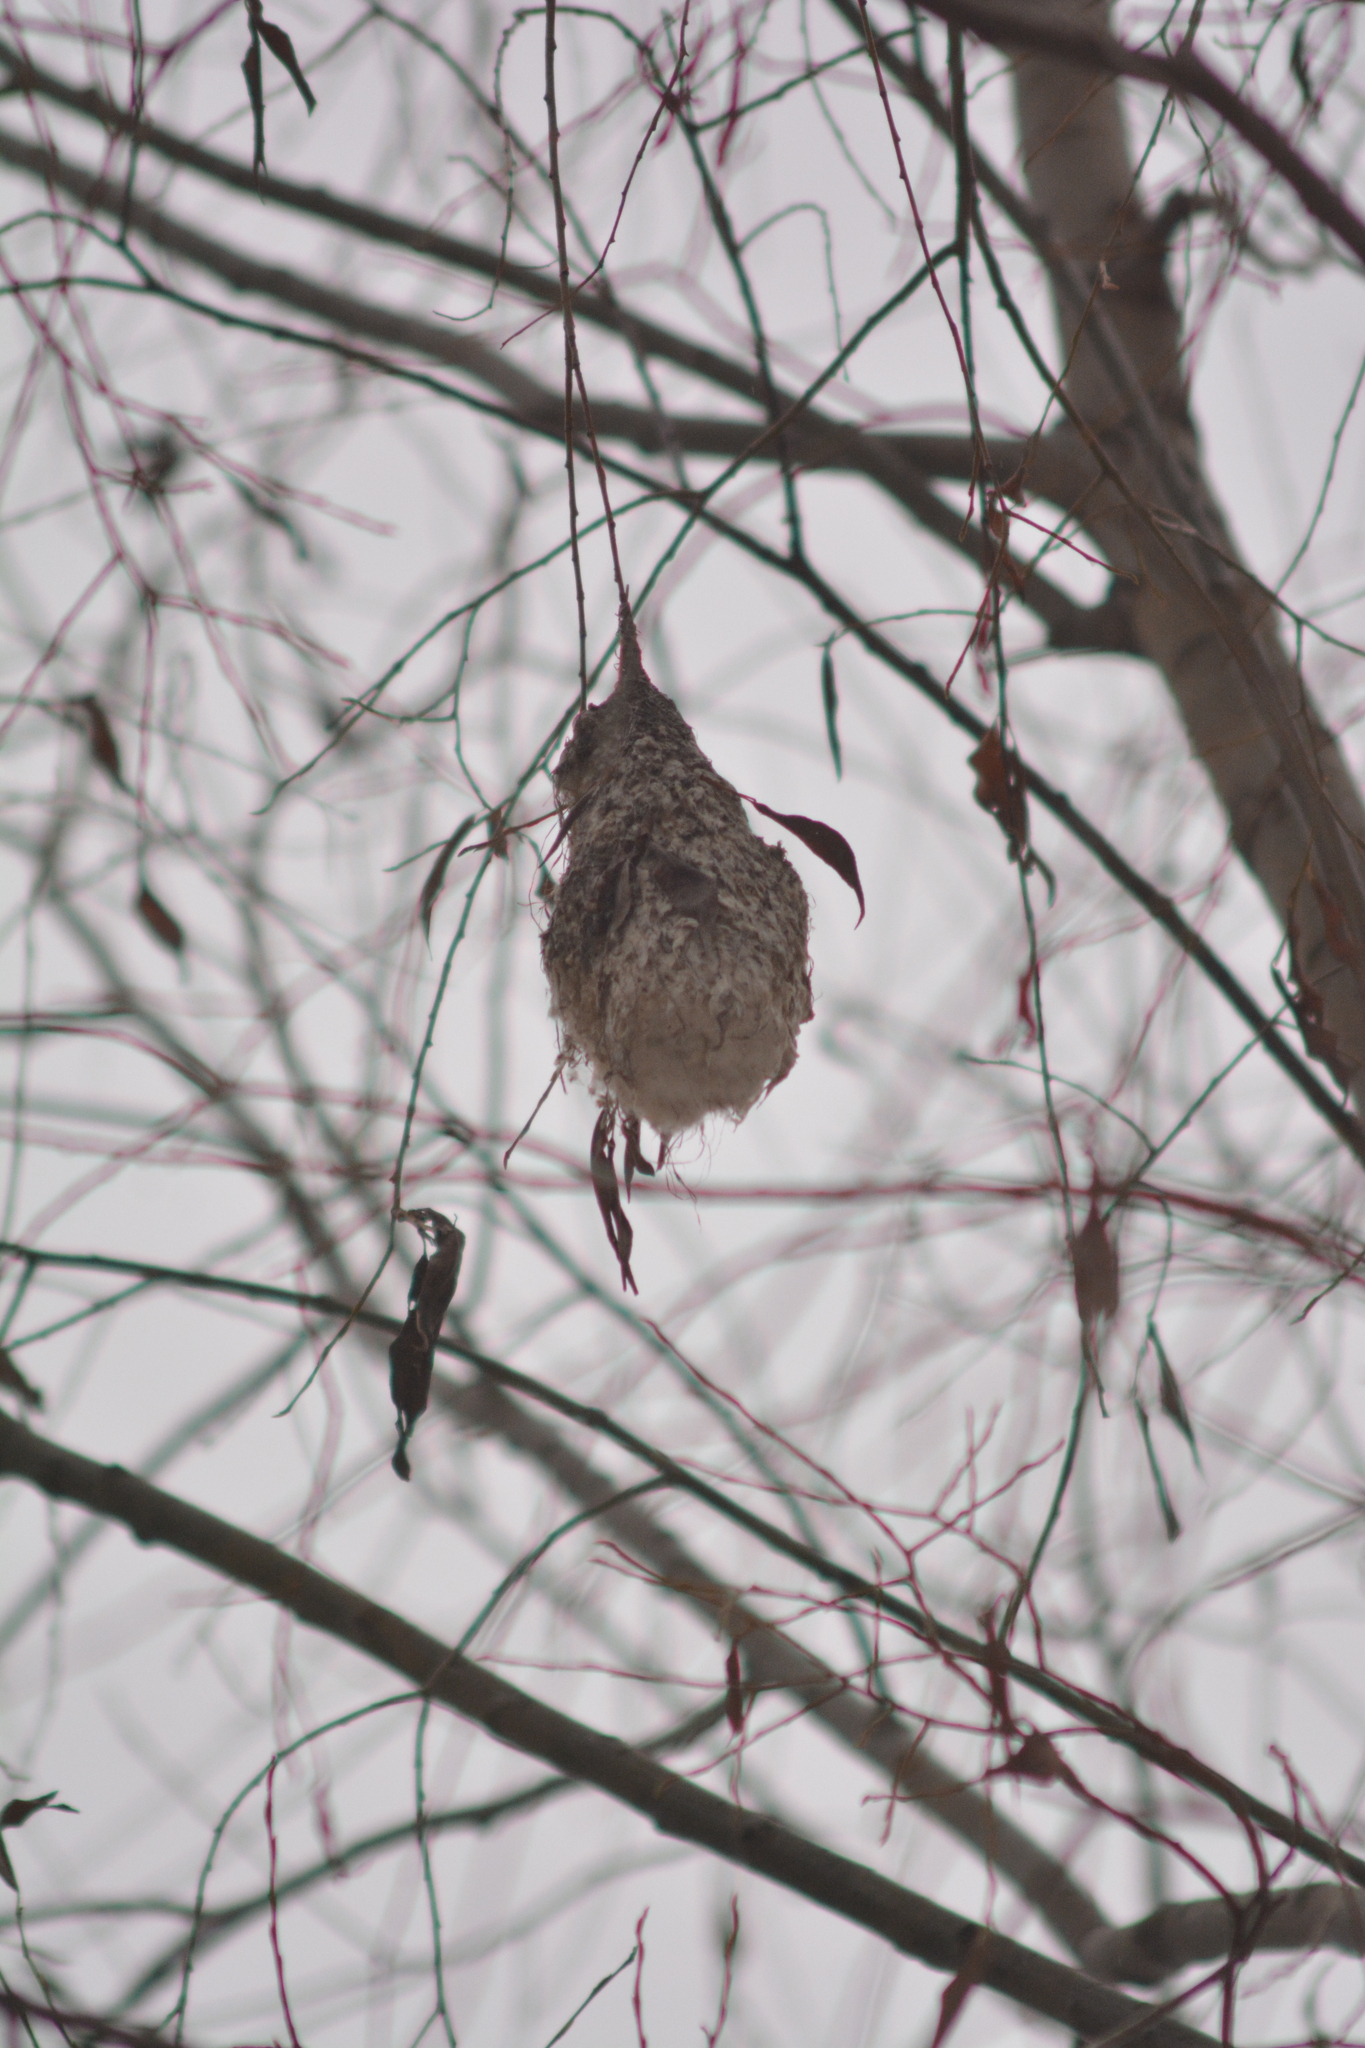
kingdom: Animalia
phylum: Chordata
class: Aves
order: Passeriformes
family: Remizidae
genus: Remiz
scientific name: Remiz pendulinus
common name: Eurasian penduline tit
